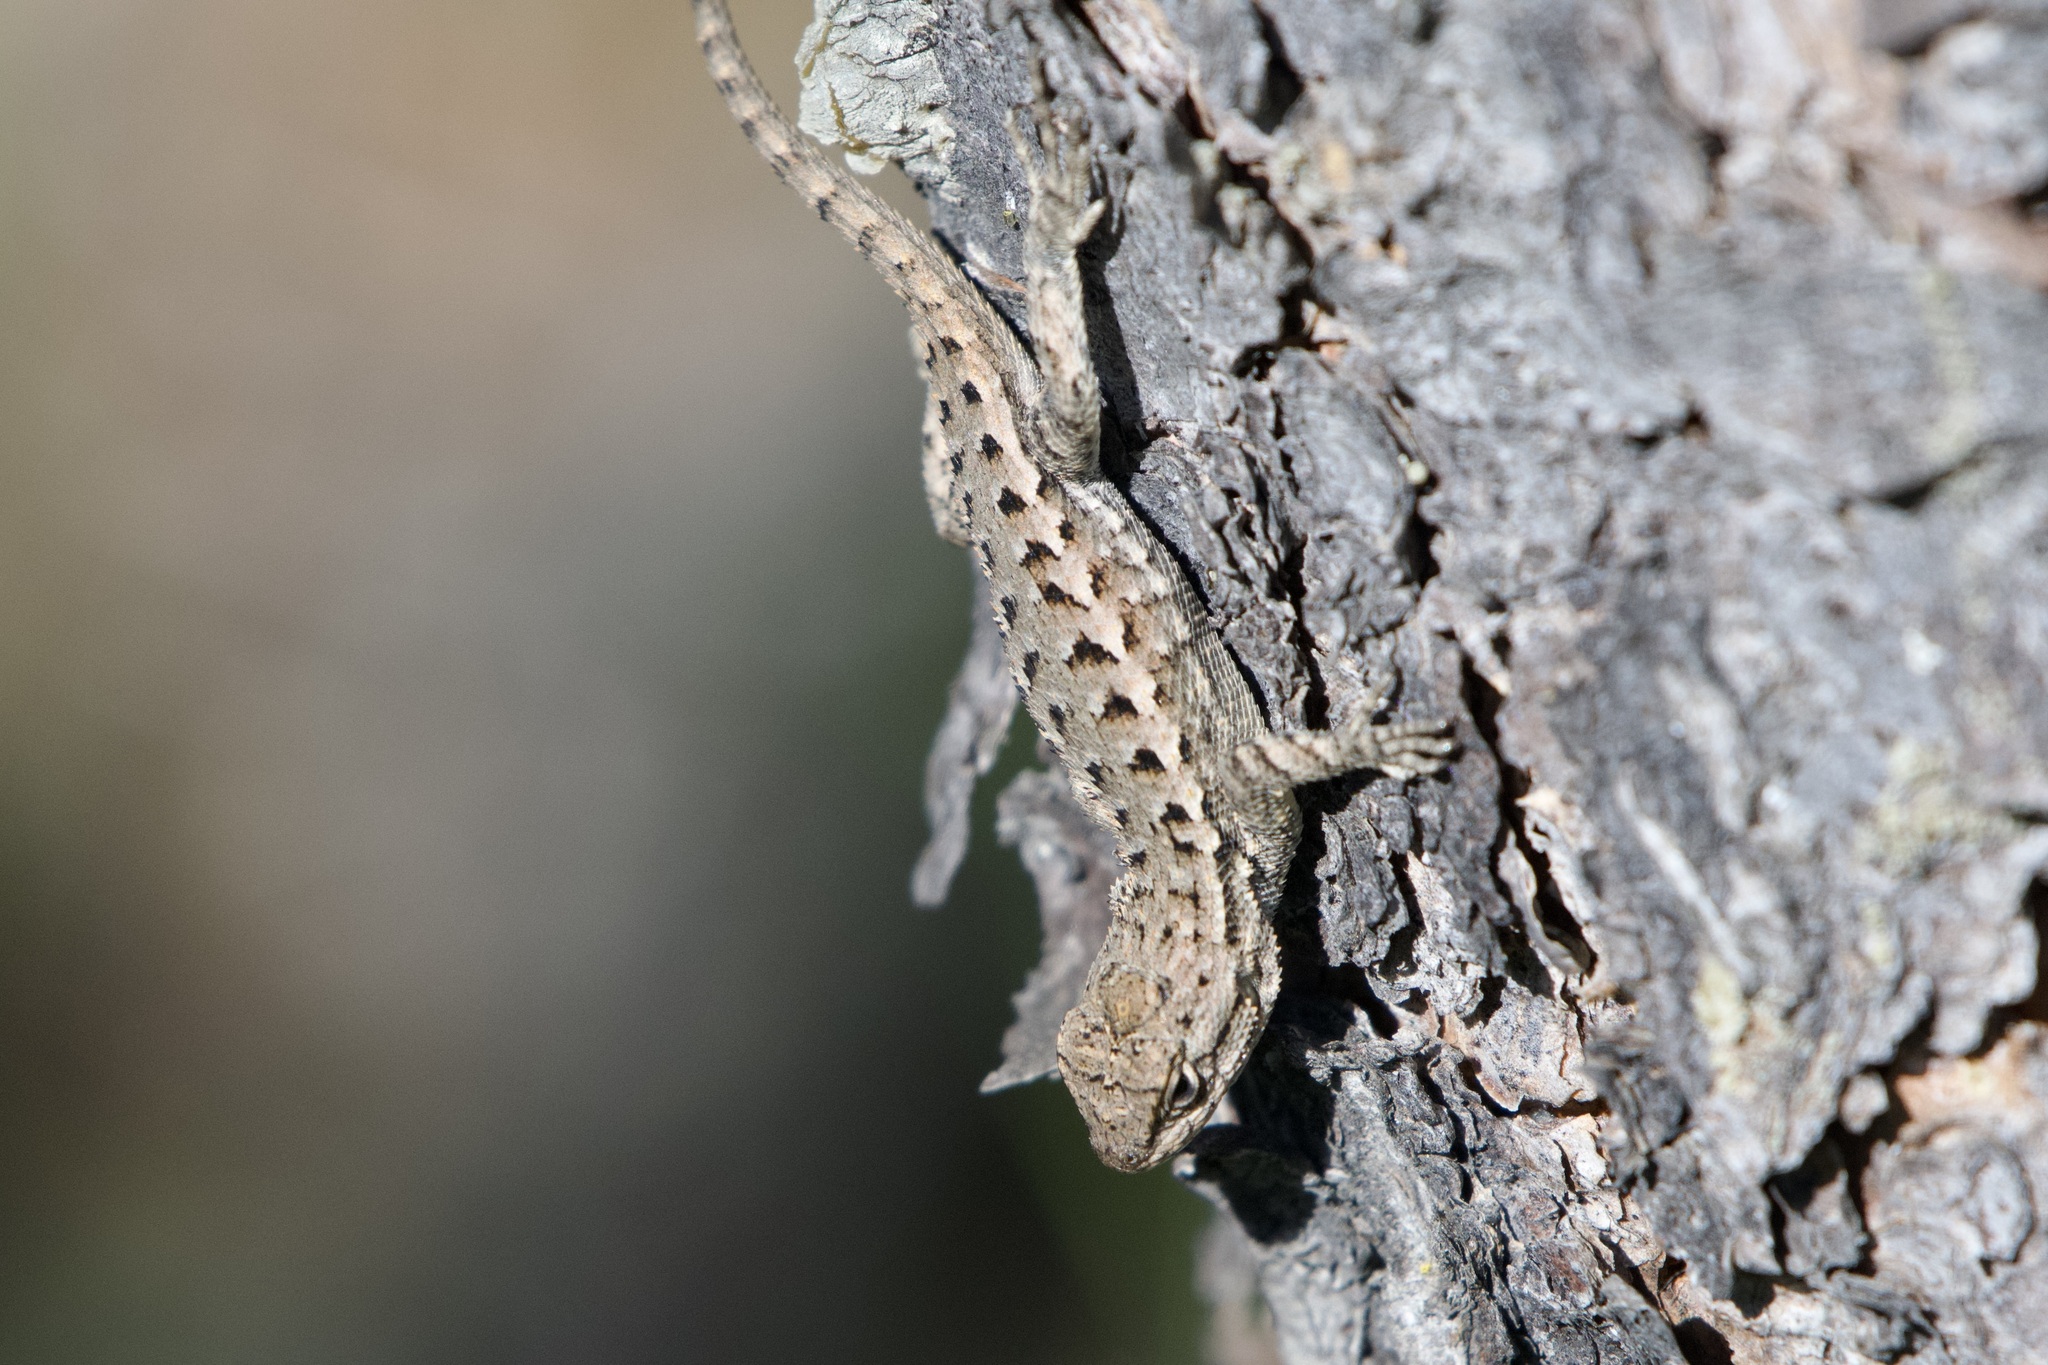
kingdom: Animalia
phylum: Chordata
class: Squamata
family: Phrynosomatidae
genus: Sceloporus
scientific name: Sceloporus occidentalis
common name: Western fence lizard
